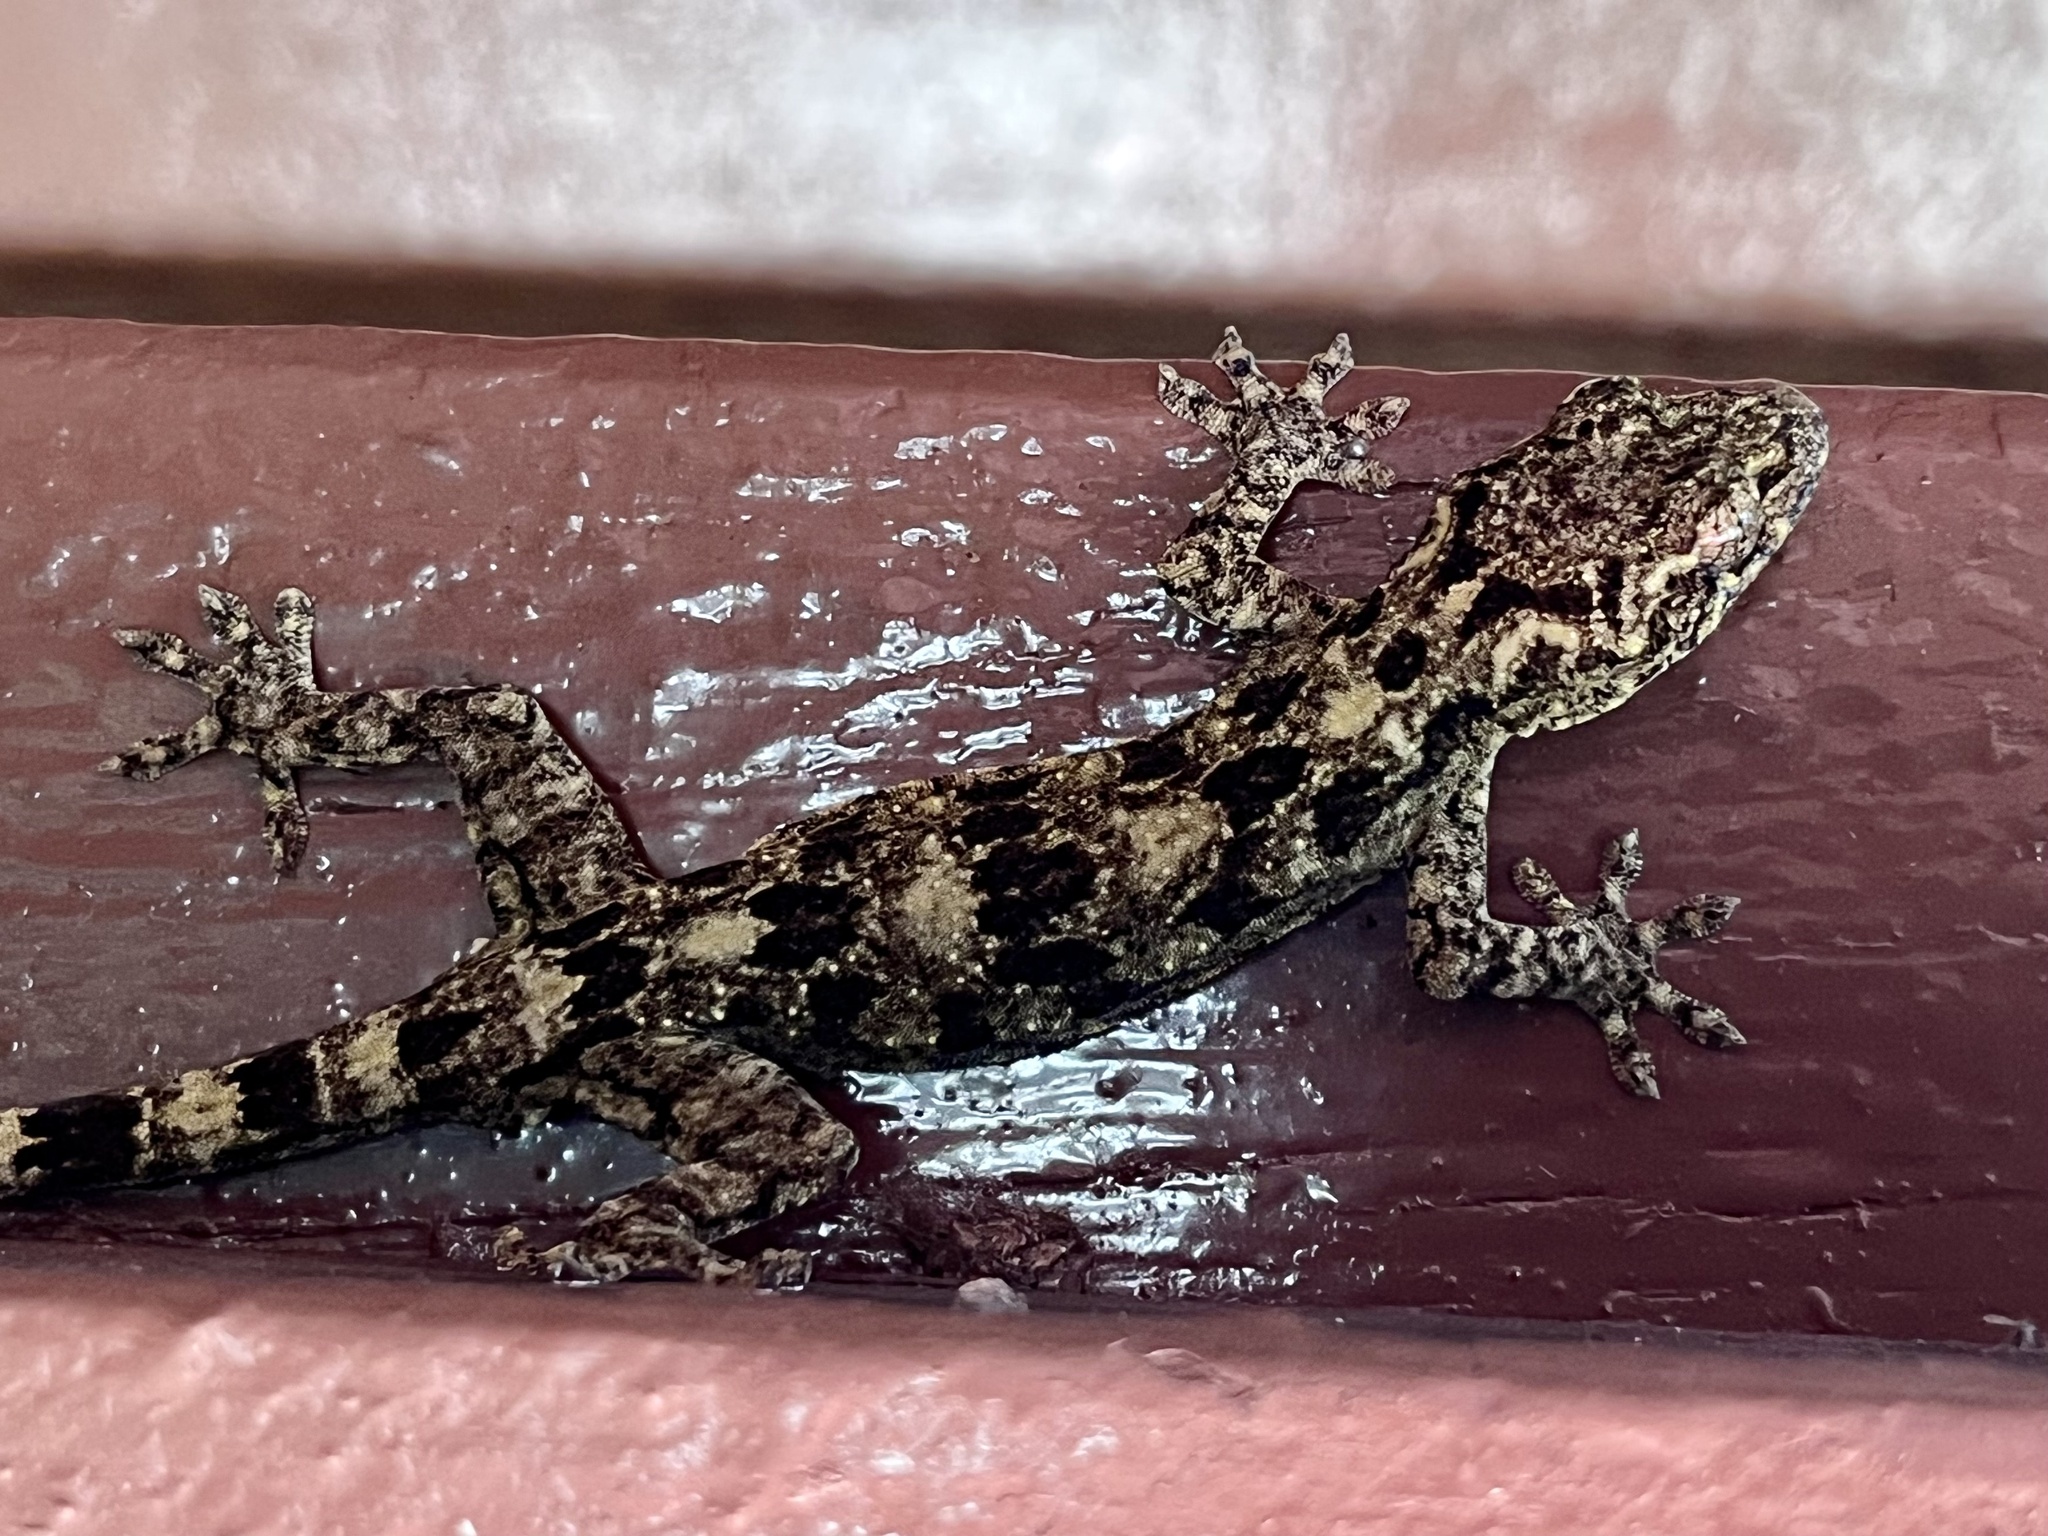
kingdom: Animalia
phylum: Chordata
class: Squamata
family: Gekkonidae
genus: Gekko
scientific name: Gekko chinensis
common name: Gray's chinese gecko
